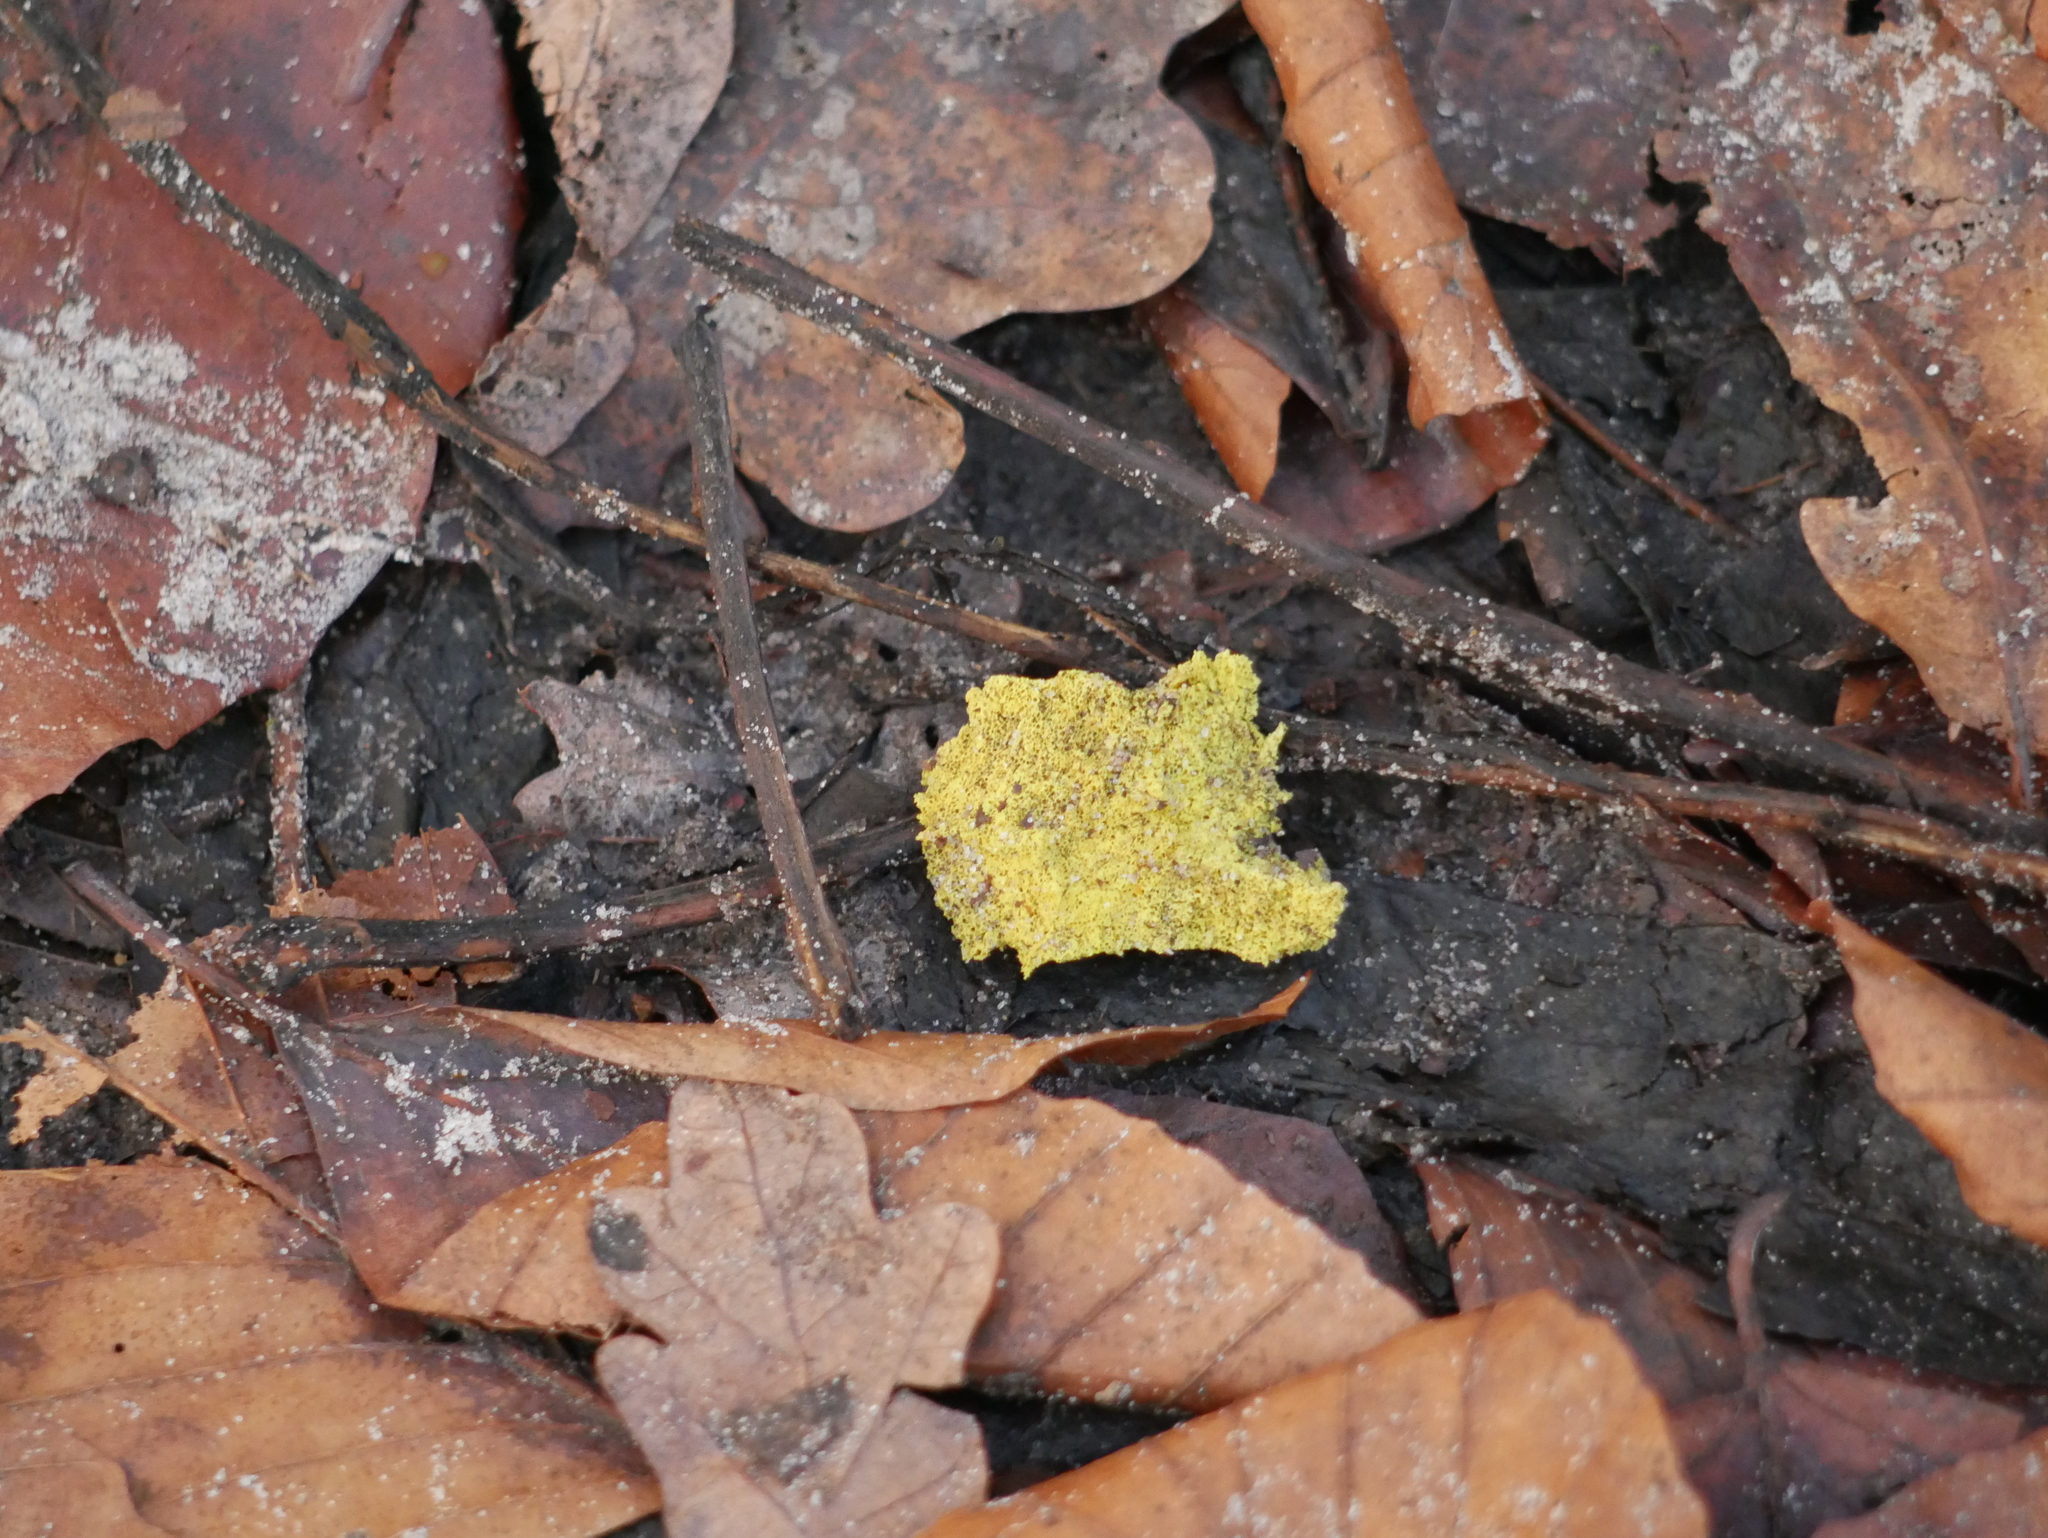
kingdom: Protozoa
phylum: Mycetozoa
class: Myxomycetes
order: Physarales
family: Physaraceae
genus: Fuligo
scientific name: Fuligo septica
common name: Dog vomit slime mold
